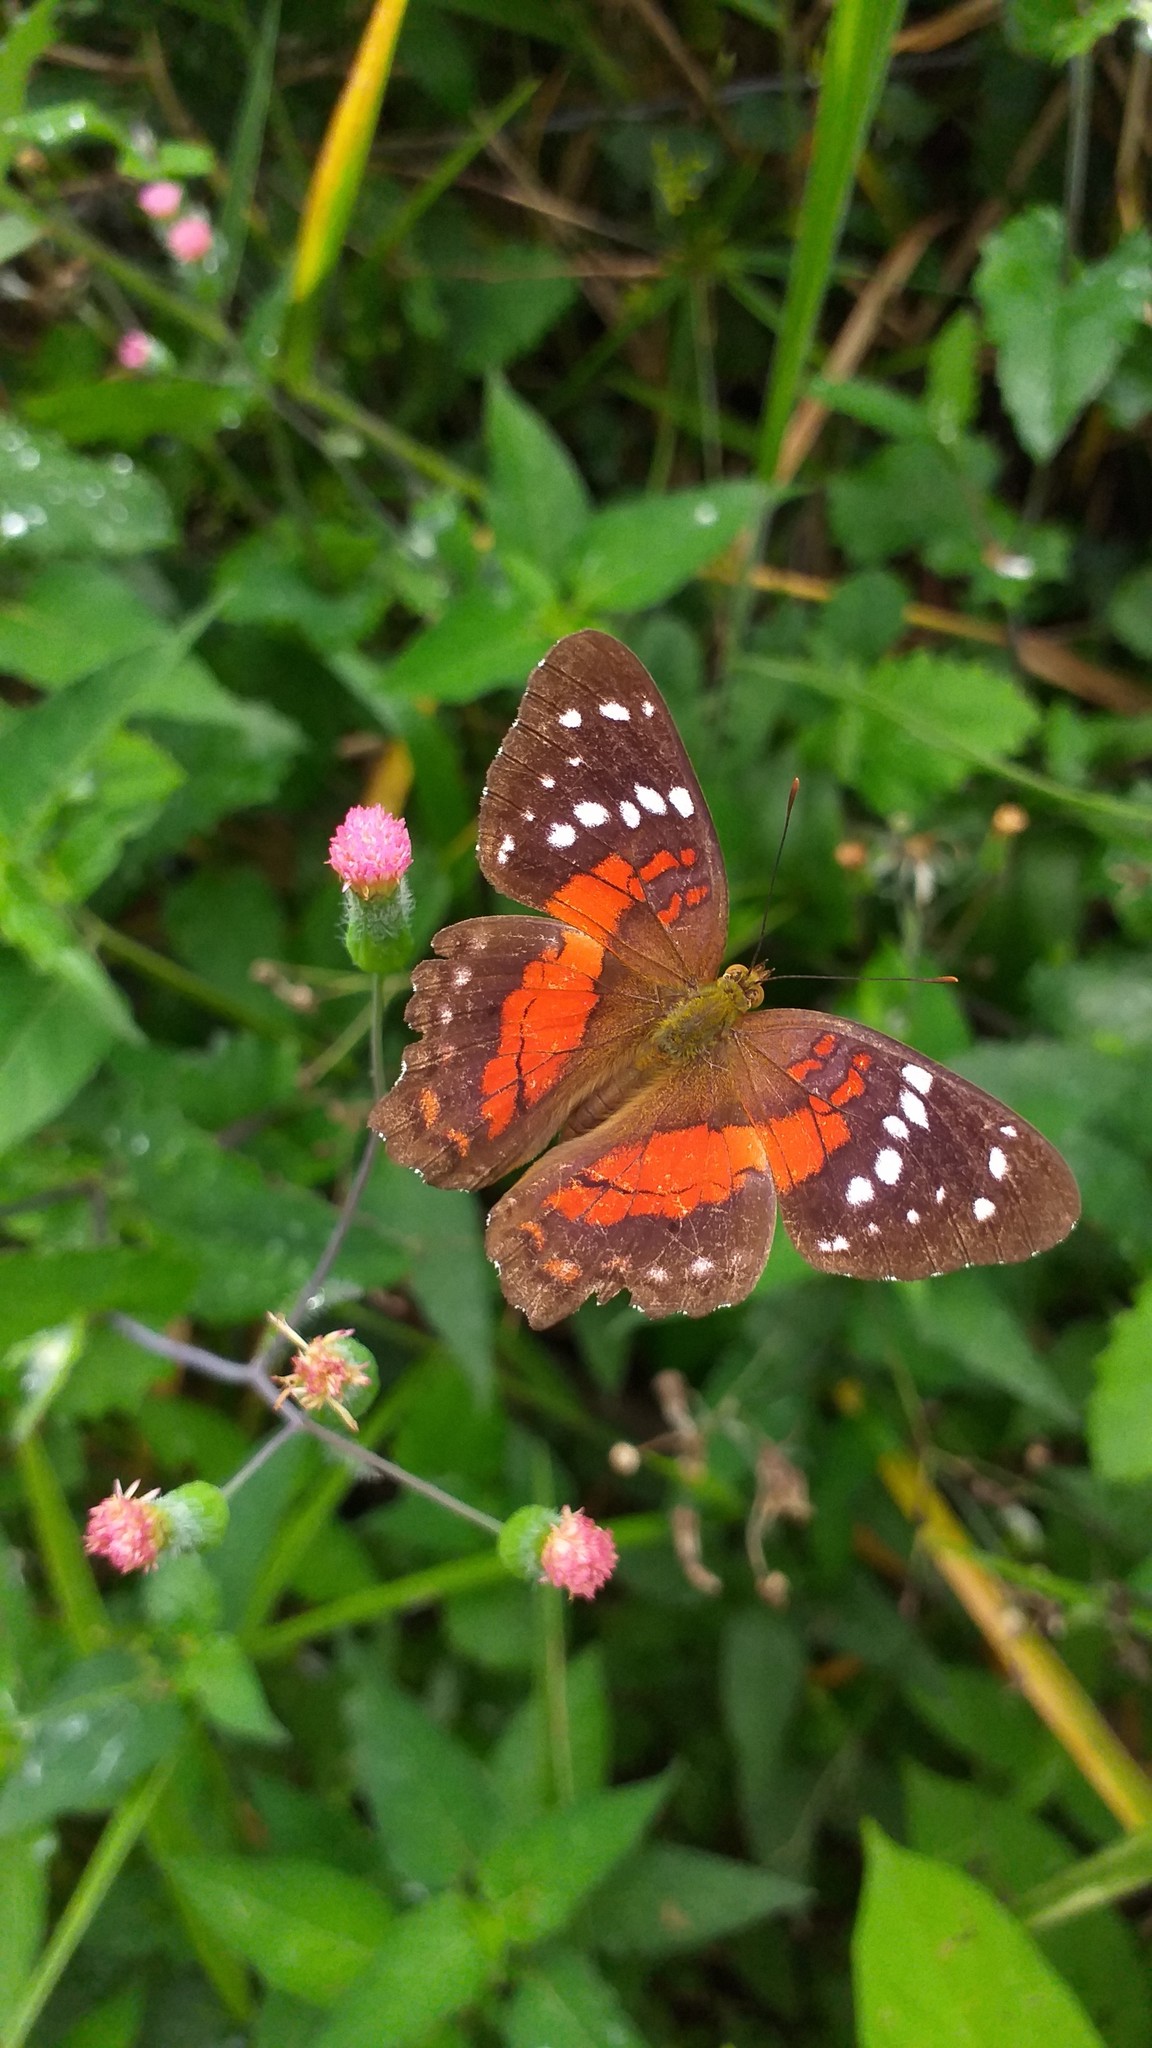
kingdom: Animalia
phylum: Arthropoda
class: Insecta
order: Lepidoptera
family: Nymphalidae
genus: Anartia
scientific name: Anartia amathea
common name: Red peacock
